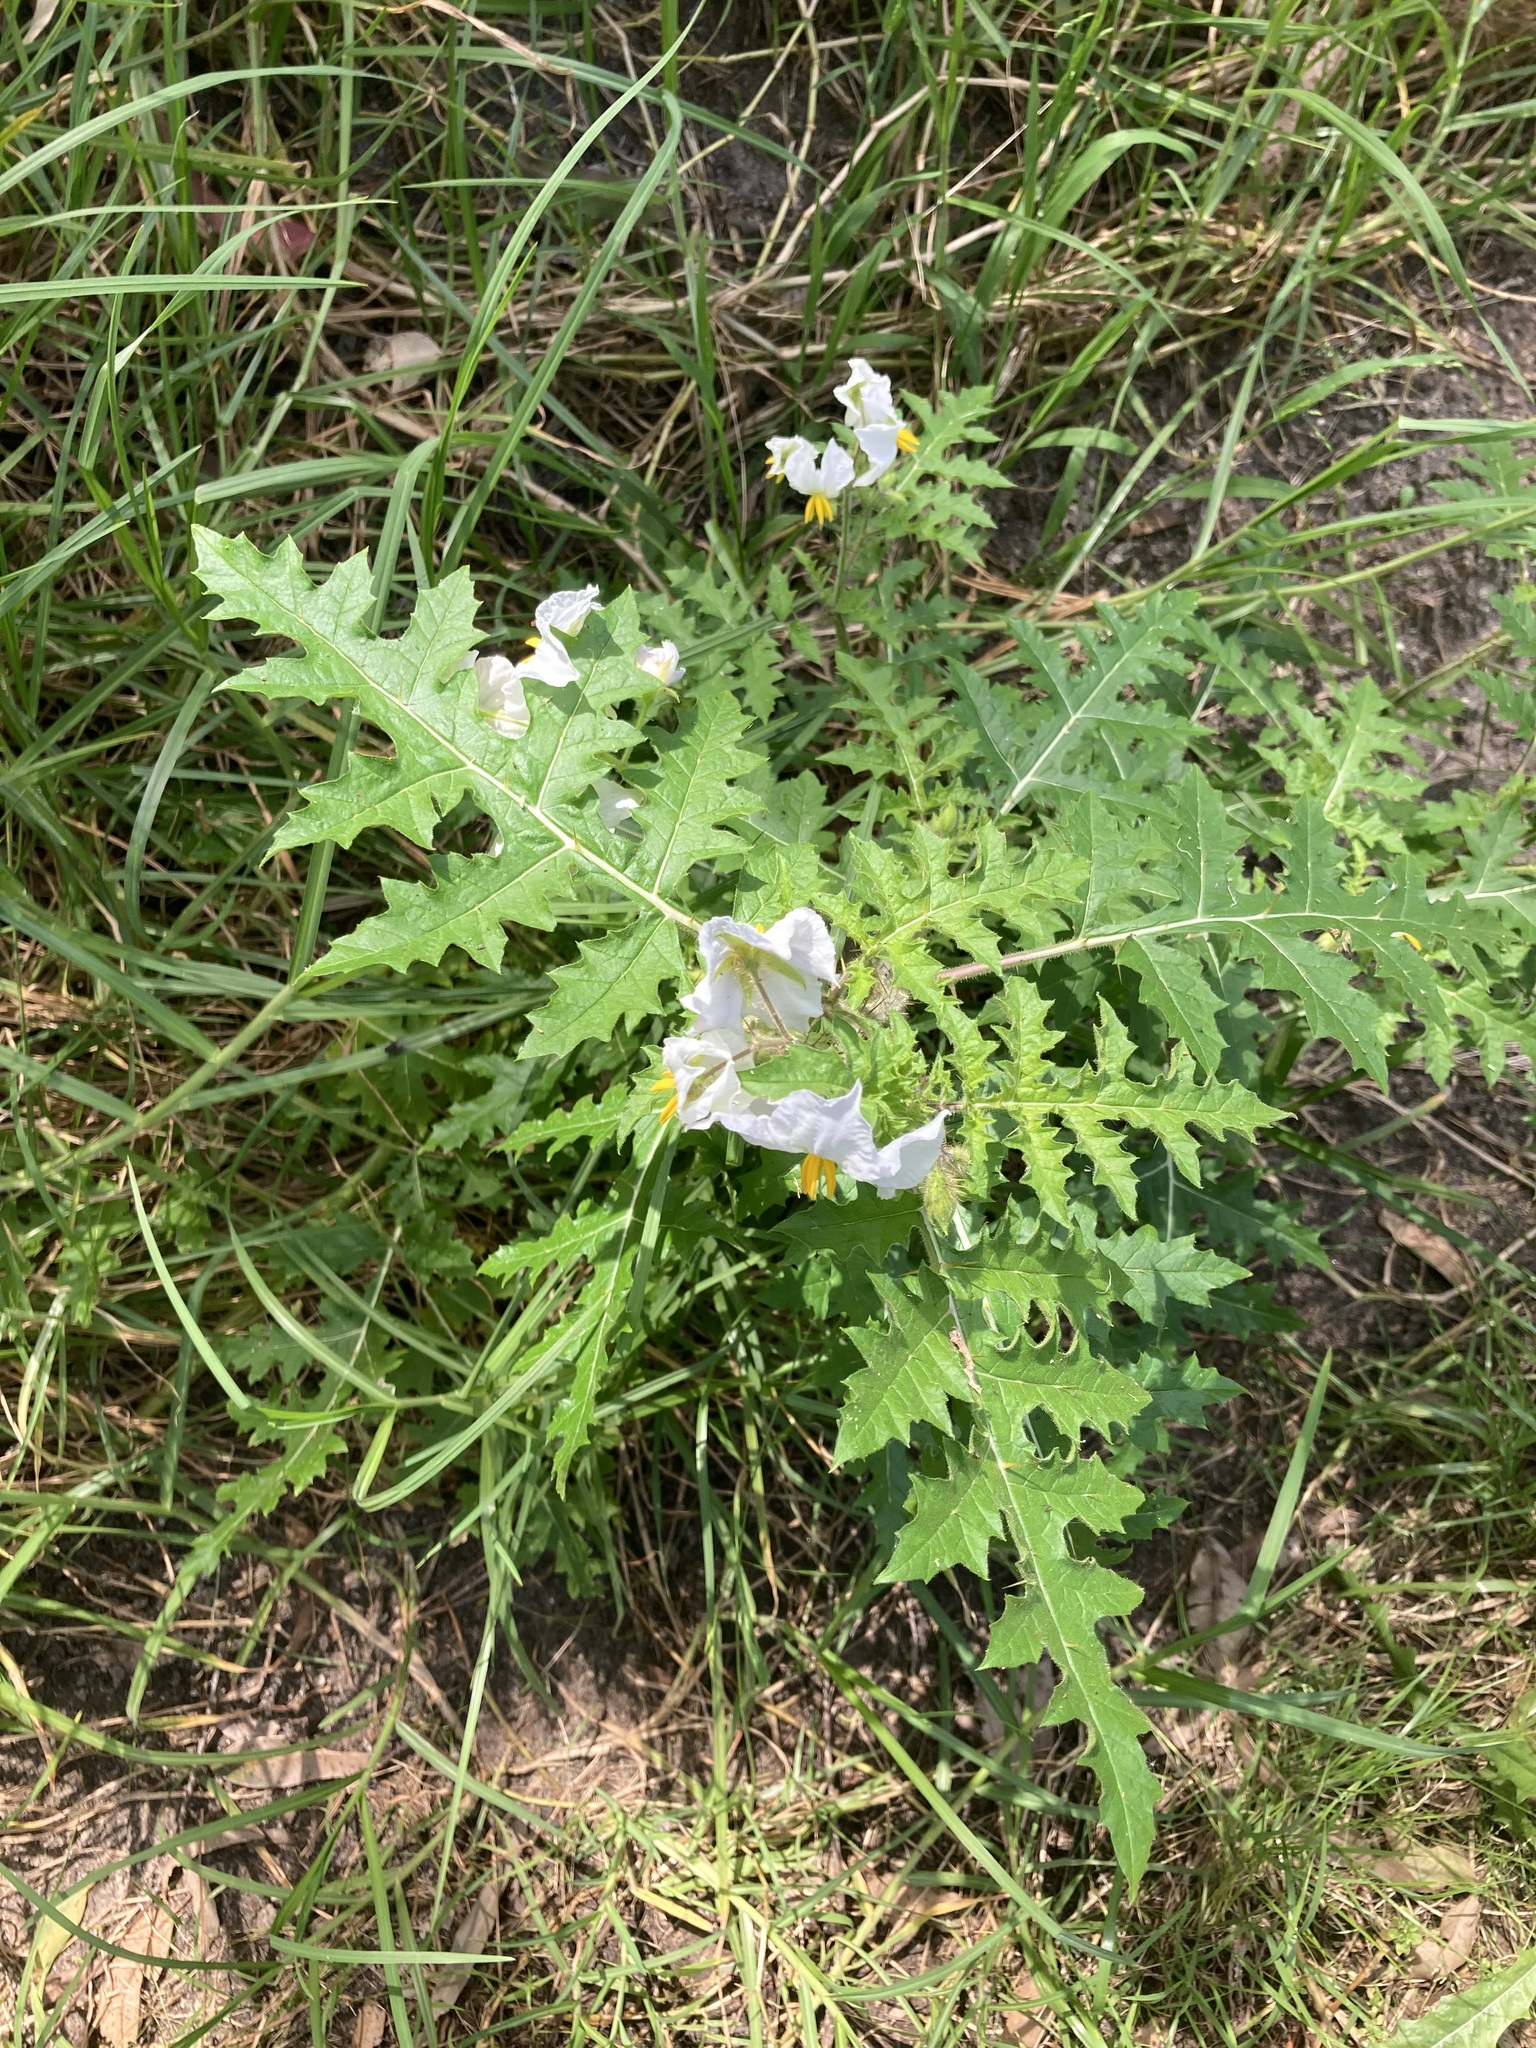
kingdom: Plantae
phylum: Tracheophyta
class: Magnoliopsida
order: Solanales
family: Solanaceae
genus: Solanum
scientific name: Solanum sisymbriifolium
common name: Red buffalo-bur
